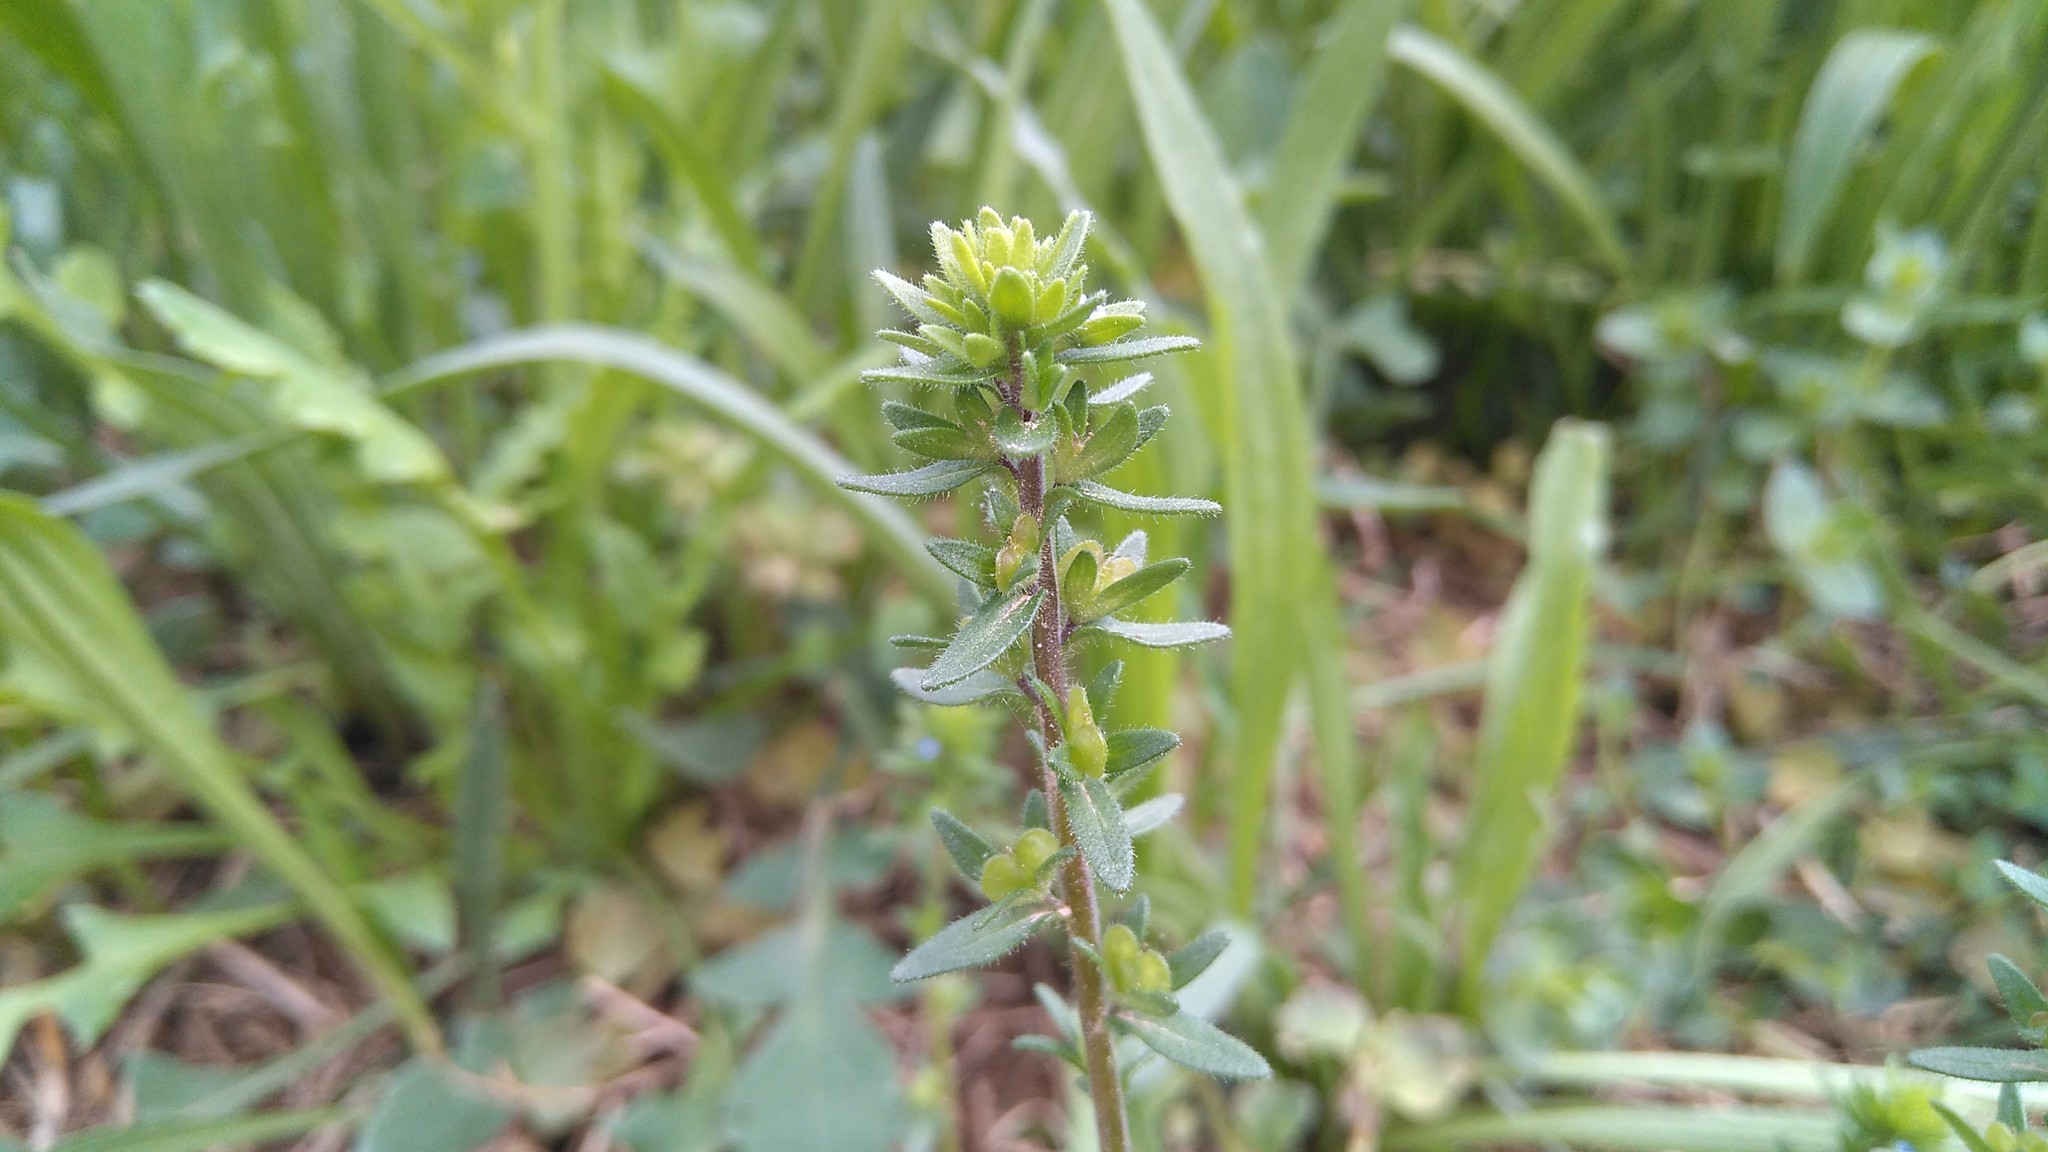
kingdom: Plantae
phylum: Tracheophyta
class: Magnoliopsida
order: Lamiales
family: Plantaginaceae
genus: Veronica
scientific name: Veronica arvensis
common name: Corn speedwell
